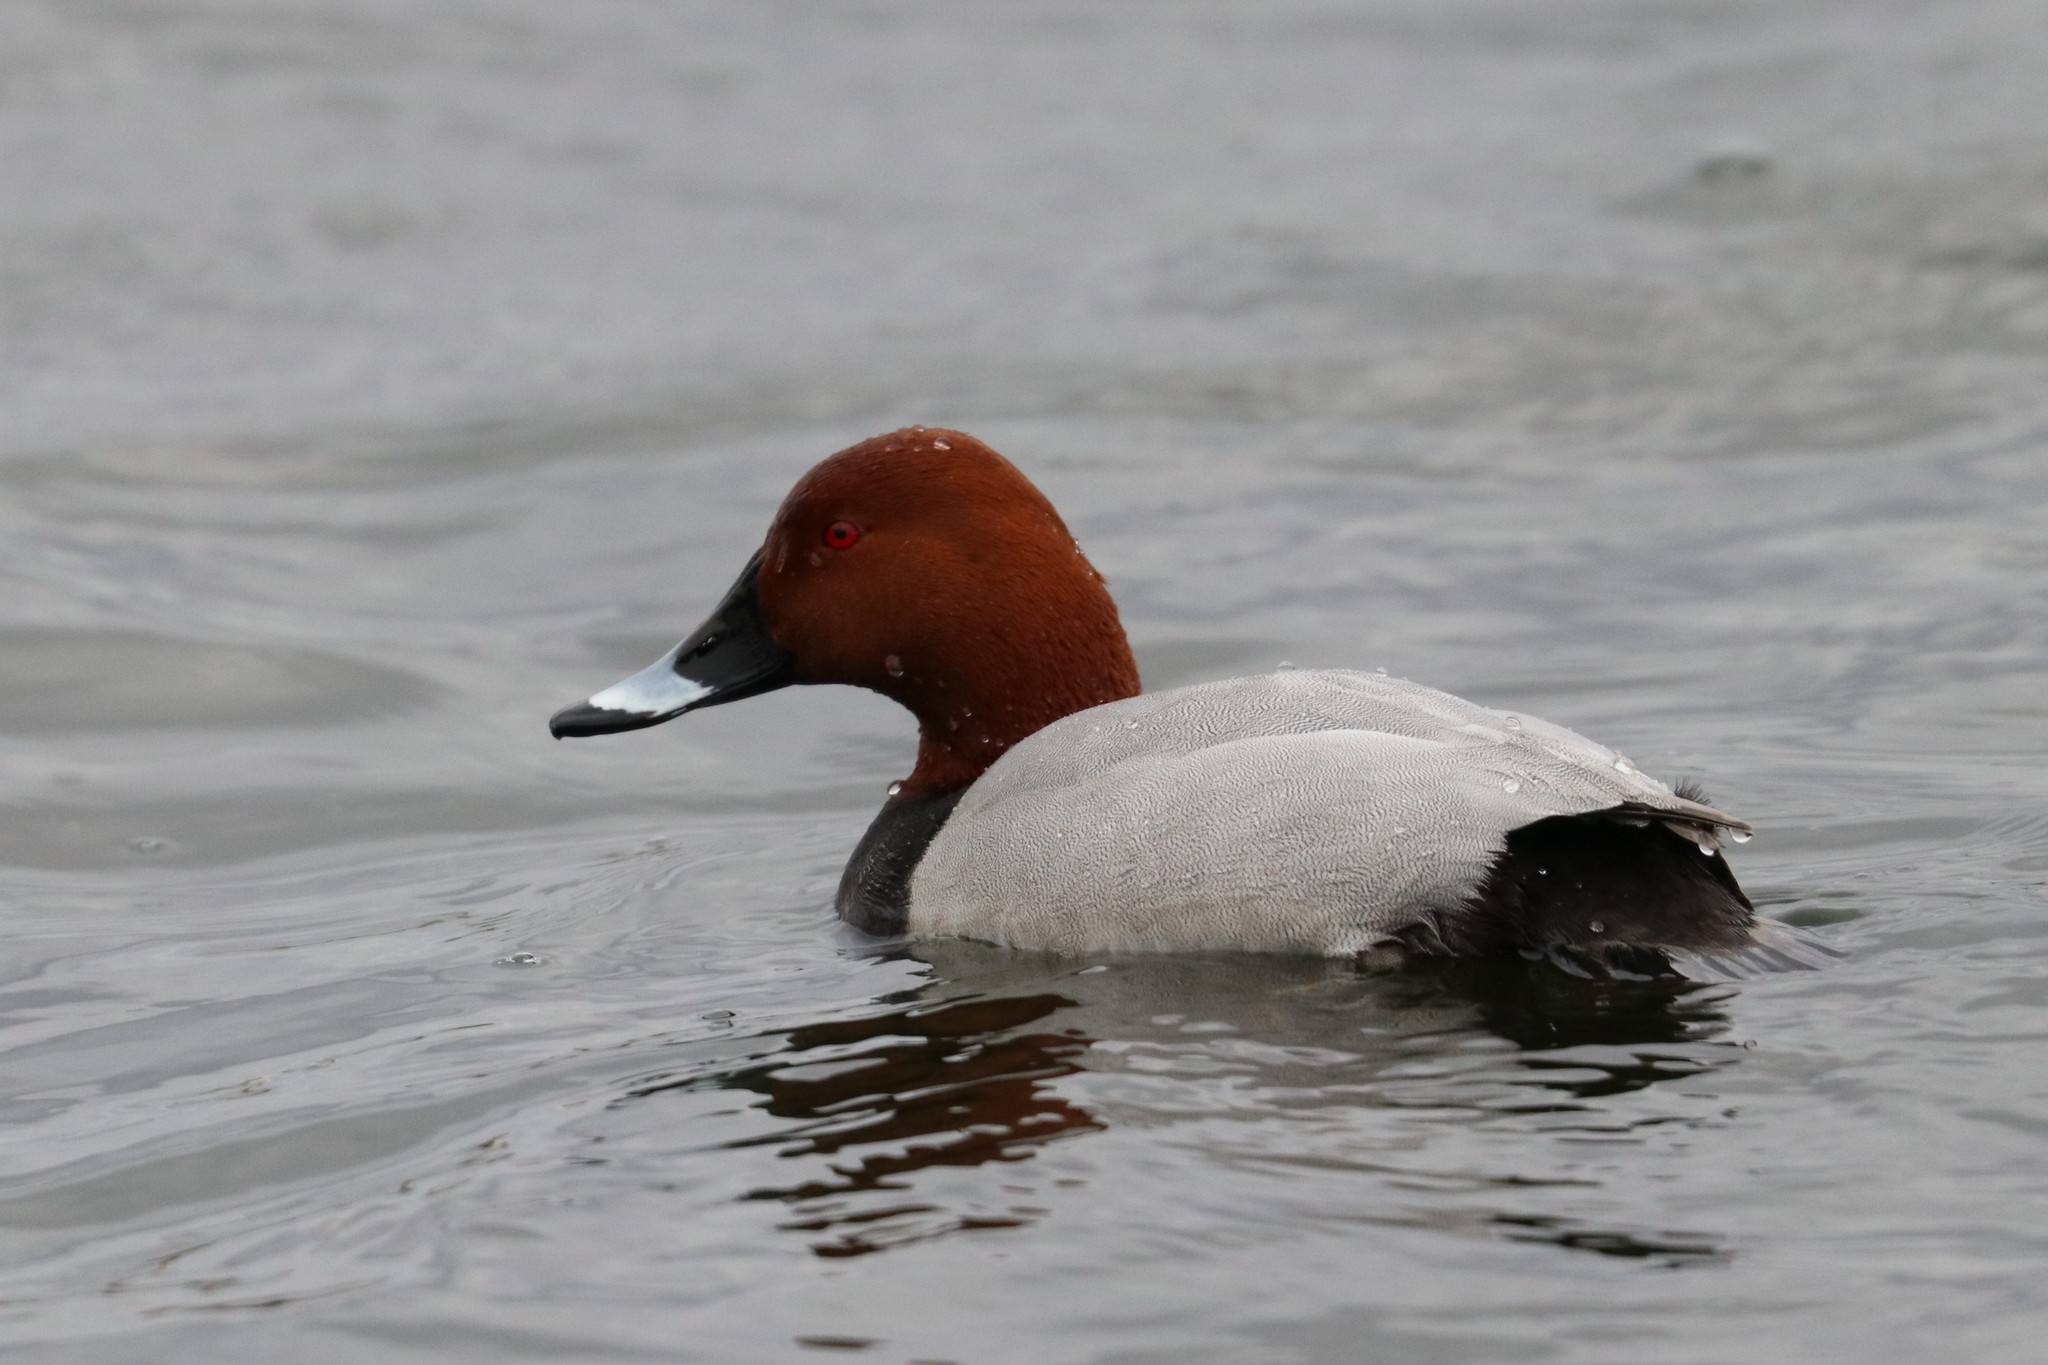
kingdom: Animalia
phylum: Chordata
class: Aves
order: Anseriformes
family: Anatidae
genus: Aythya
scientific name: Aythya ferina
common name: Common pochard
